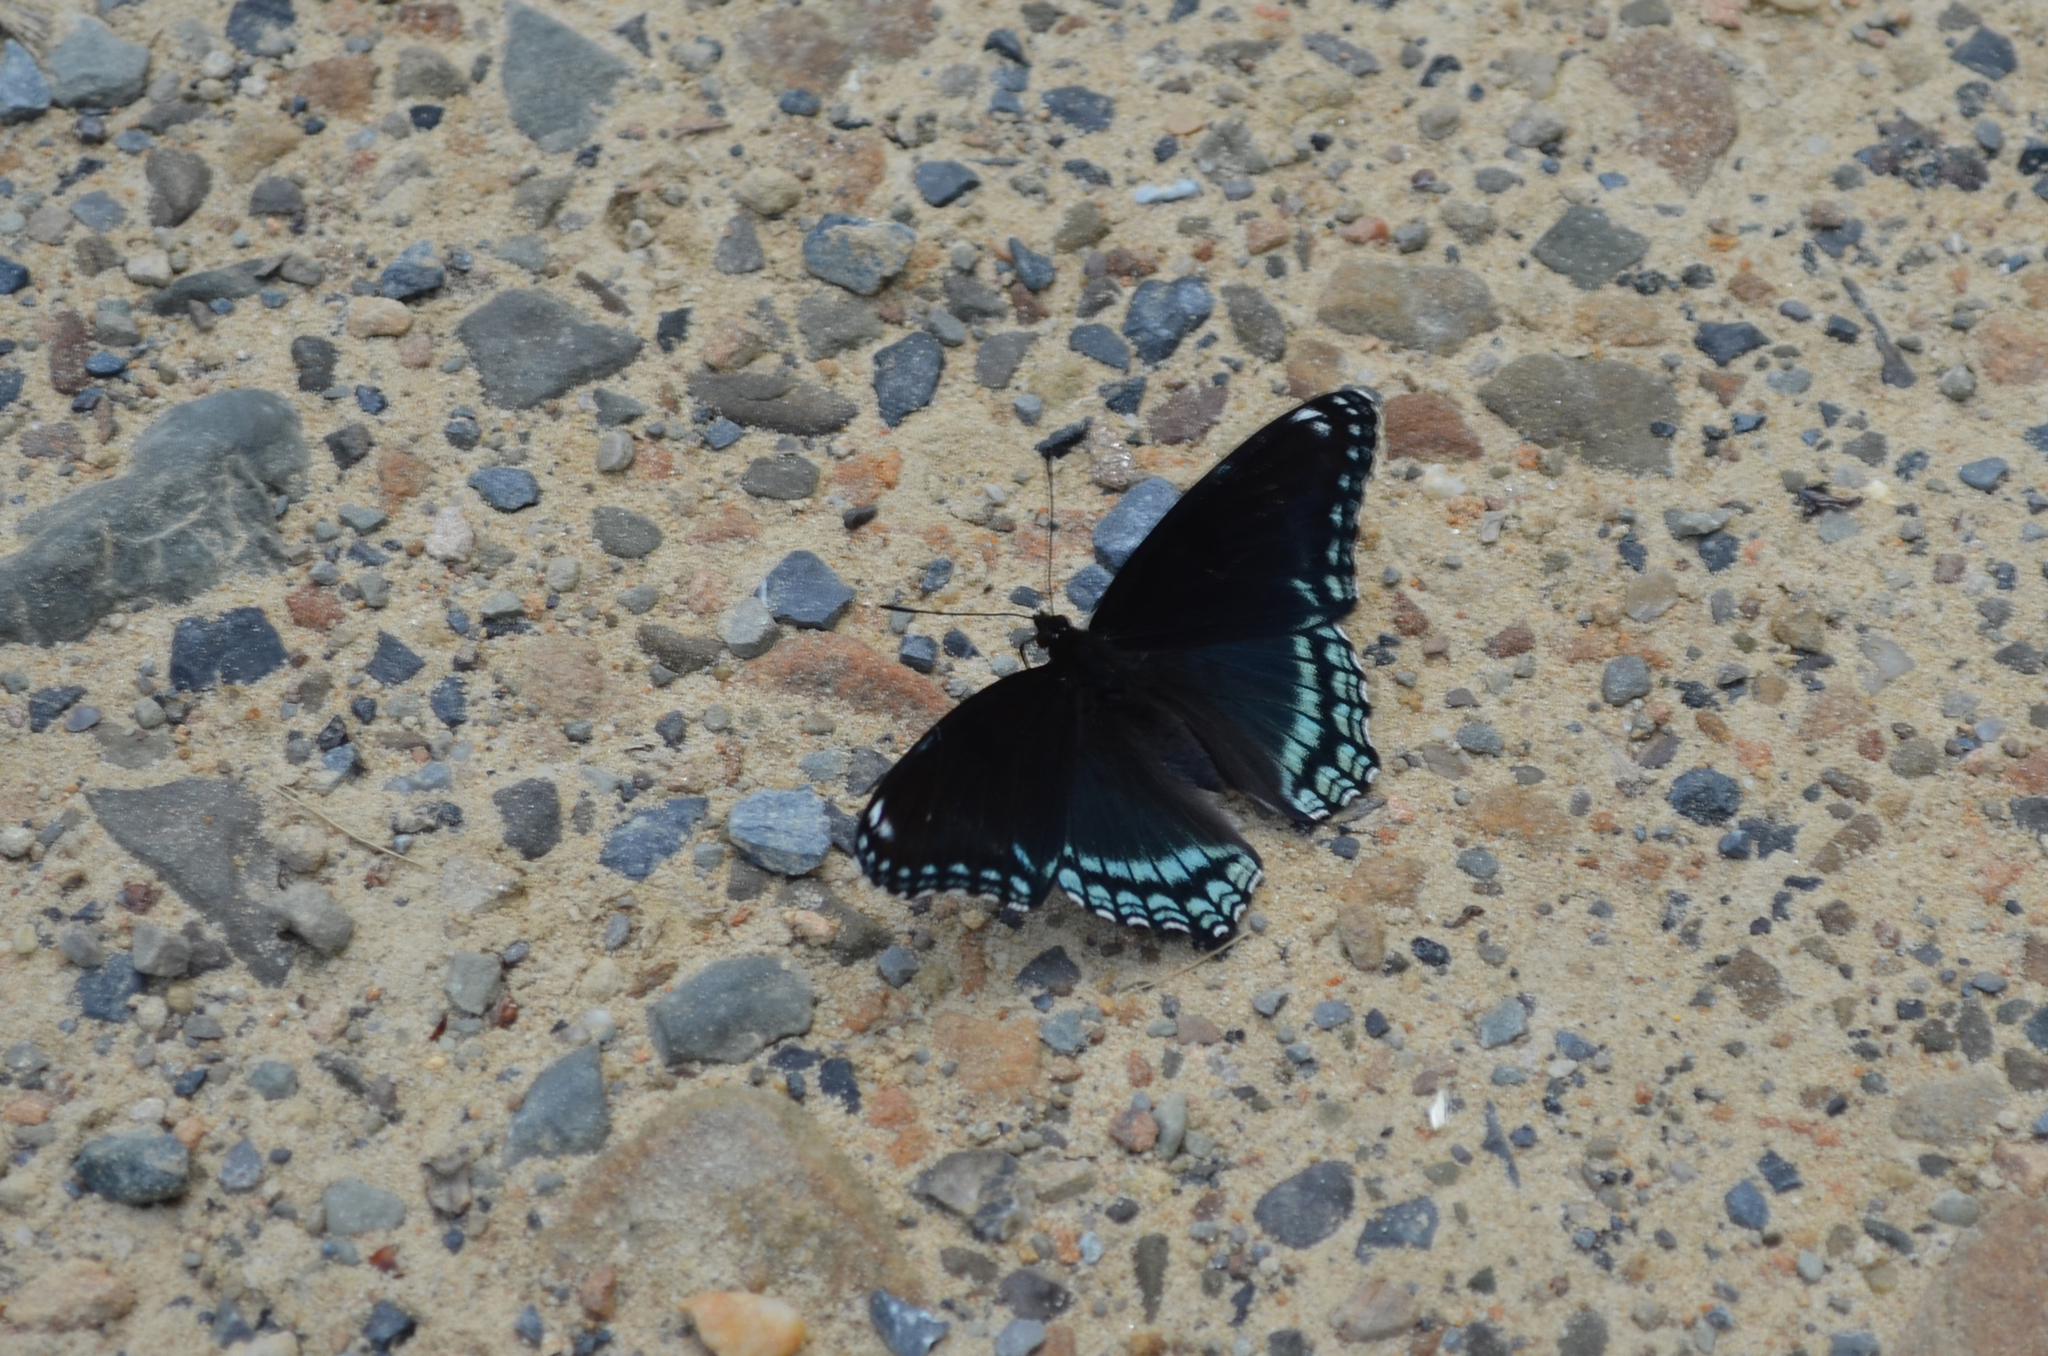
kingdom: Animalia
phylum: Arthropoda
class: Insecta
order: Lepidoptera
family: Nymphalidae
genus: Limenitis
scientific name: Limenitis astyanax
